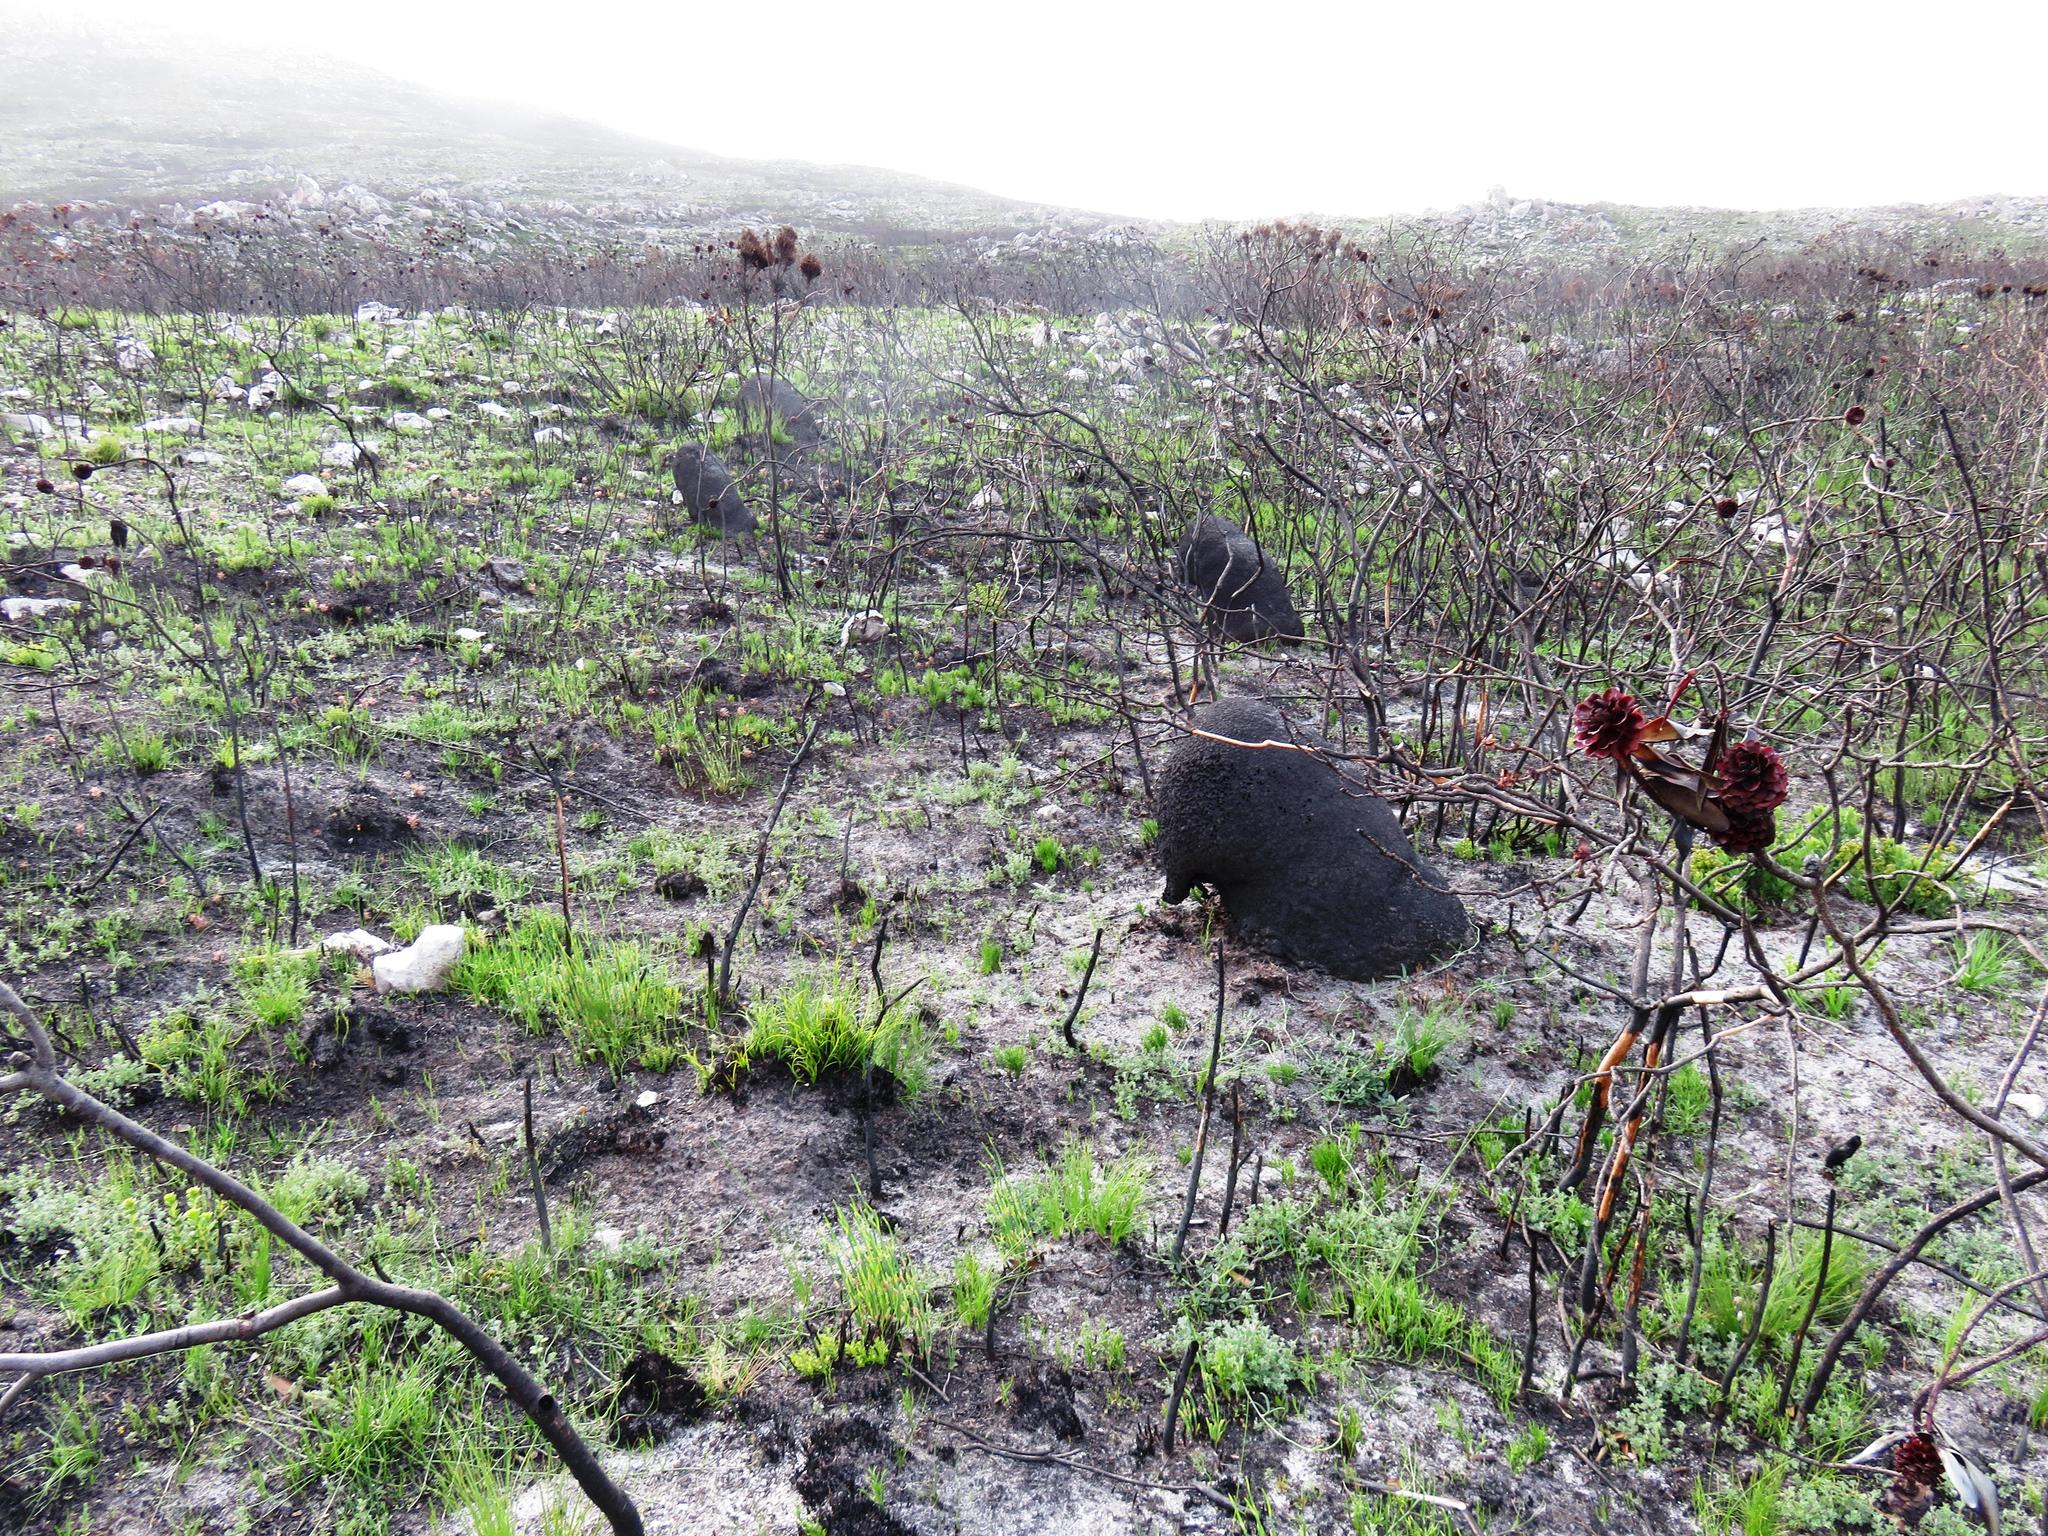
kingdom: Animalia
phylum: Arthropoda
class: Insecta
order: Blattodea
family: Termitidae
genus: Amitermes
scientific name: Amitermes hastatus
